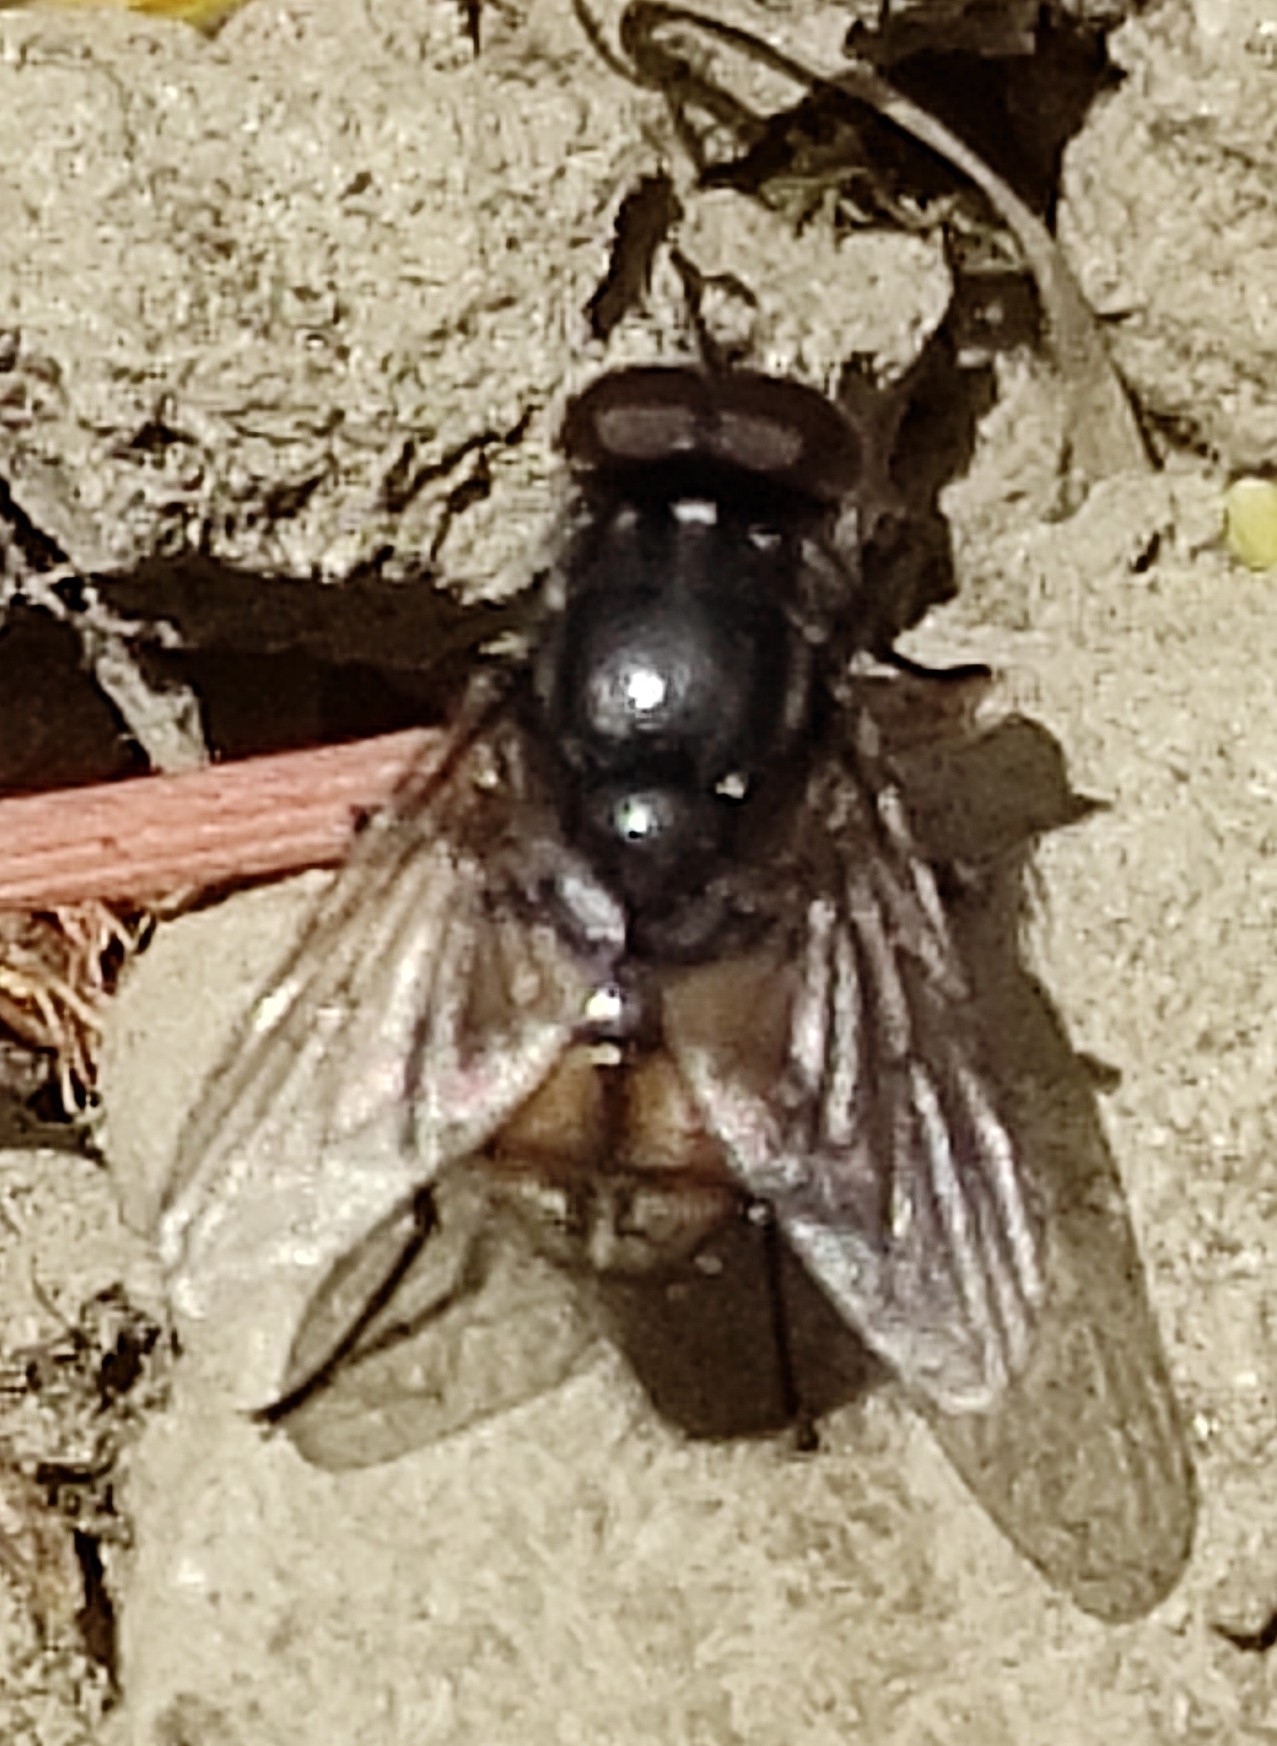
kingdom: Animalia
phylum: Arthropoda
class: Insecta
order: Diptera
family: Muscidae
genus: Musca
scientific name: Musca autumnalis
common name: Face fly
